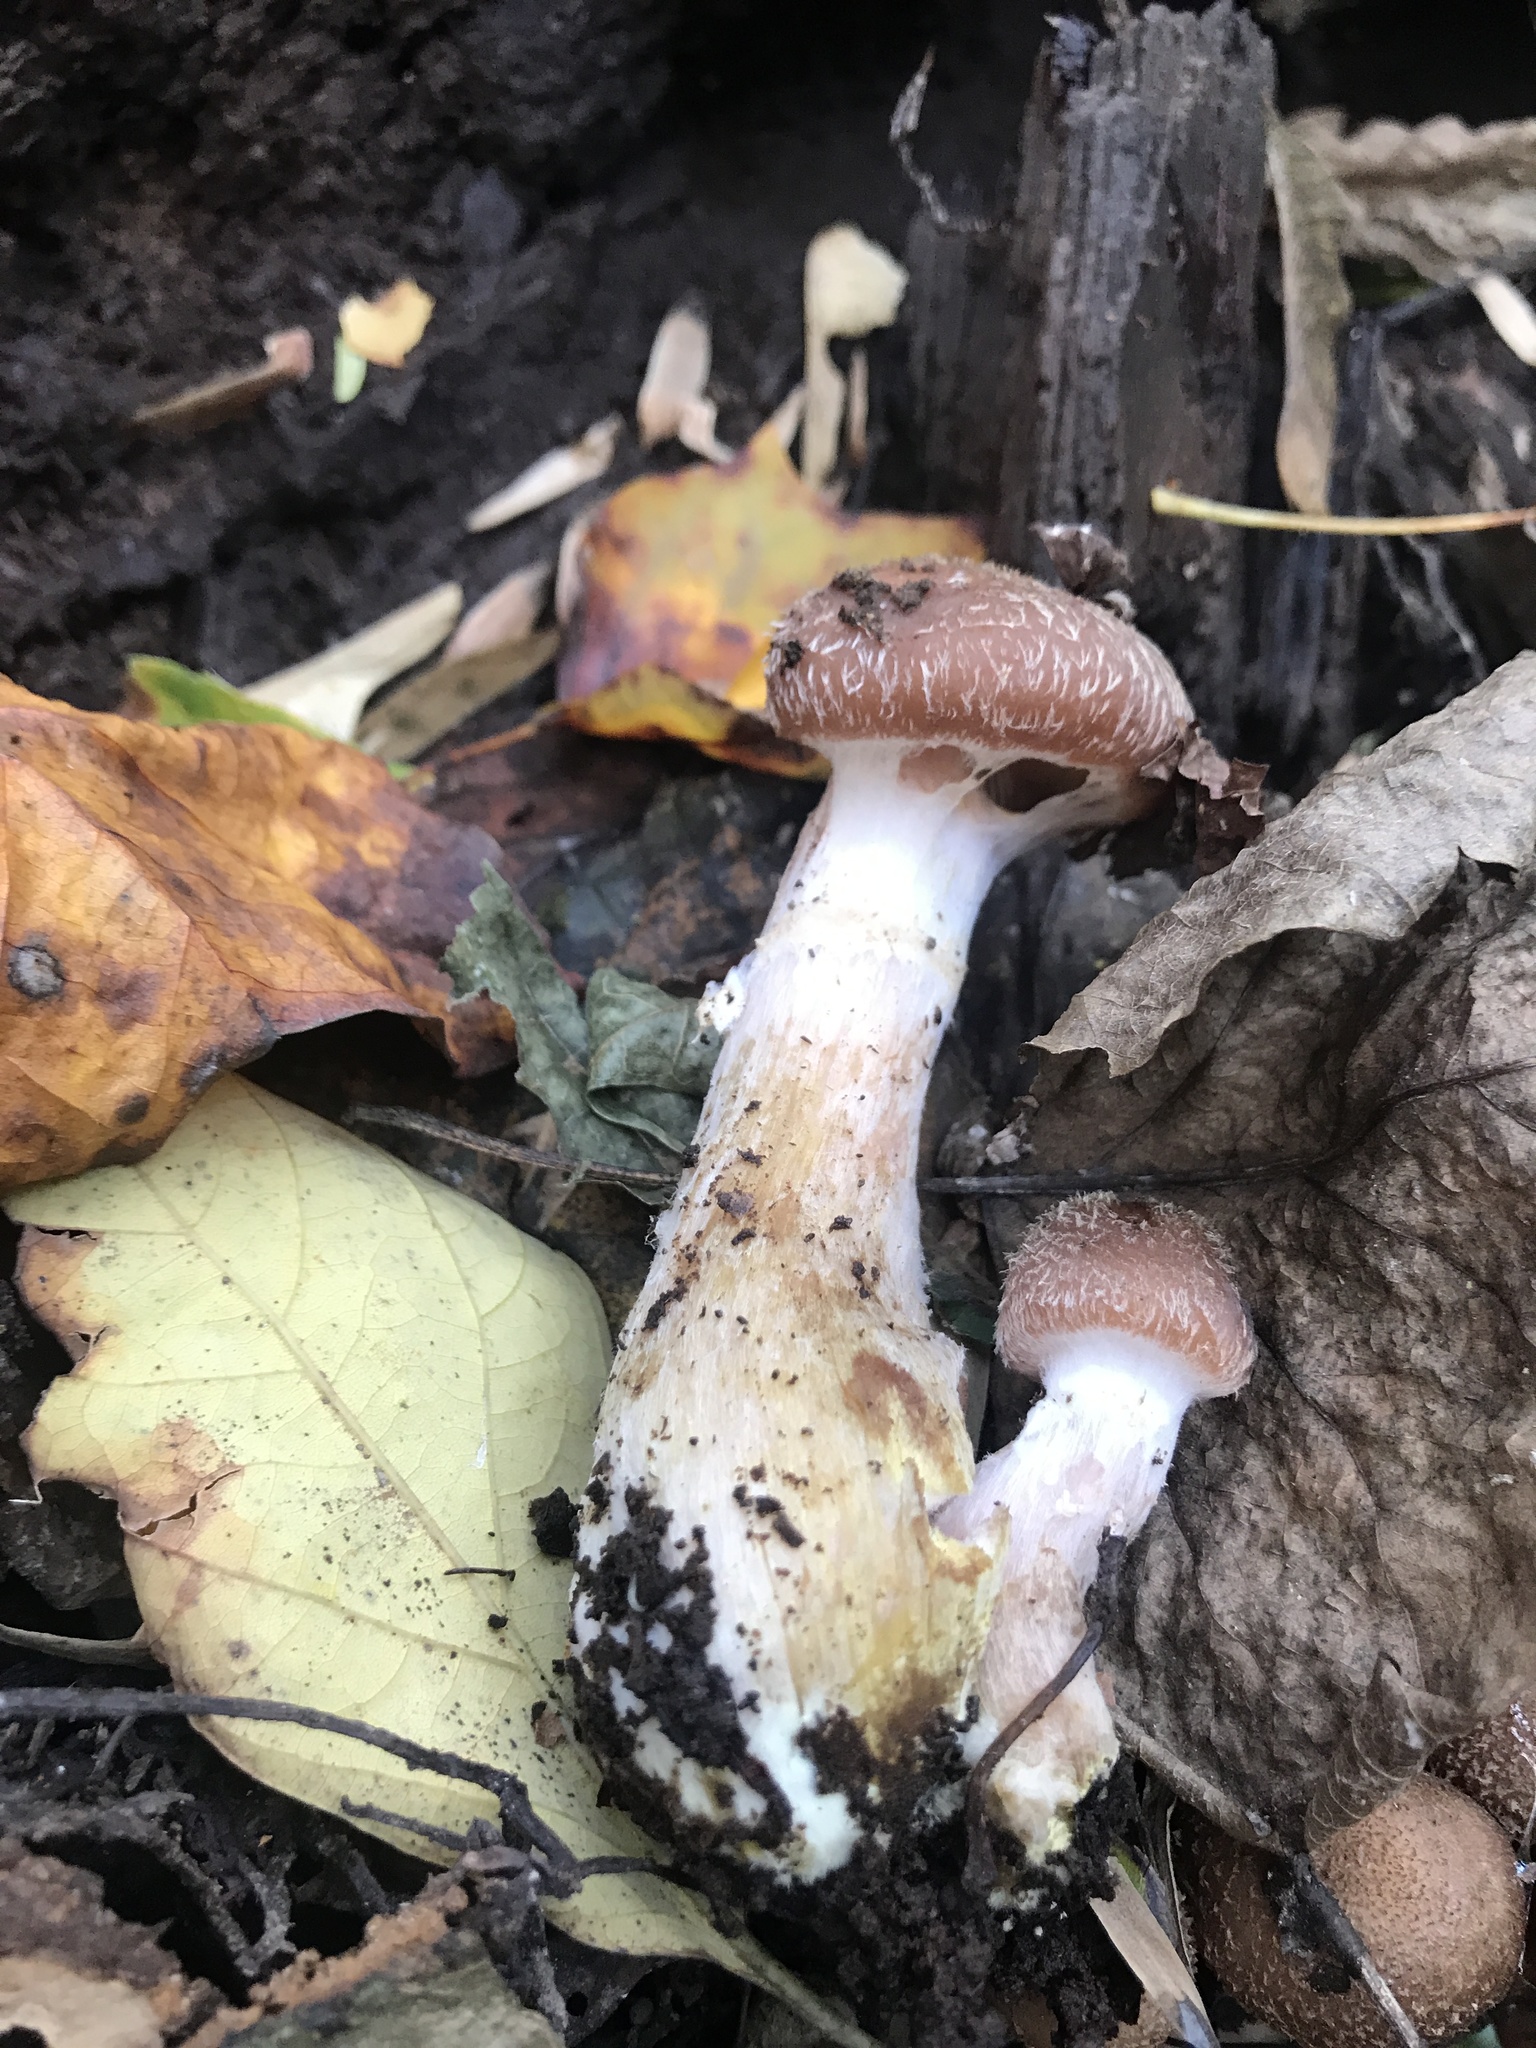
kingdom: Fungi
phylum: Basidiomycota
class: Agaricomycetes
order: Agaricales
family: Physalacriaceae
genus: Armillaria
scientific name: Armillaria gallica
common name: Bulbous honey fungus
